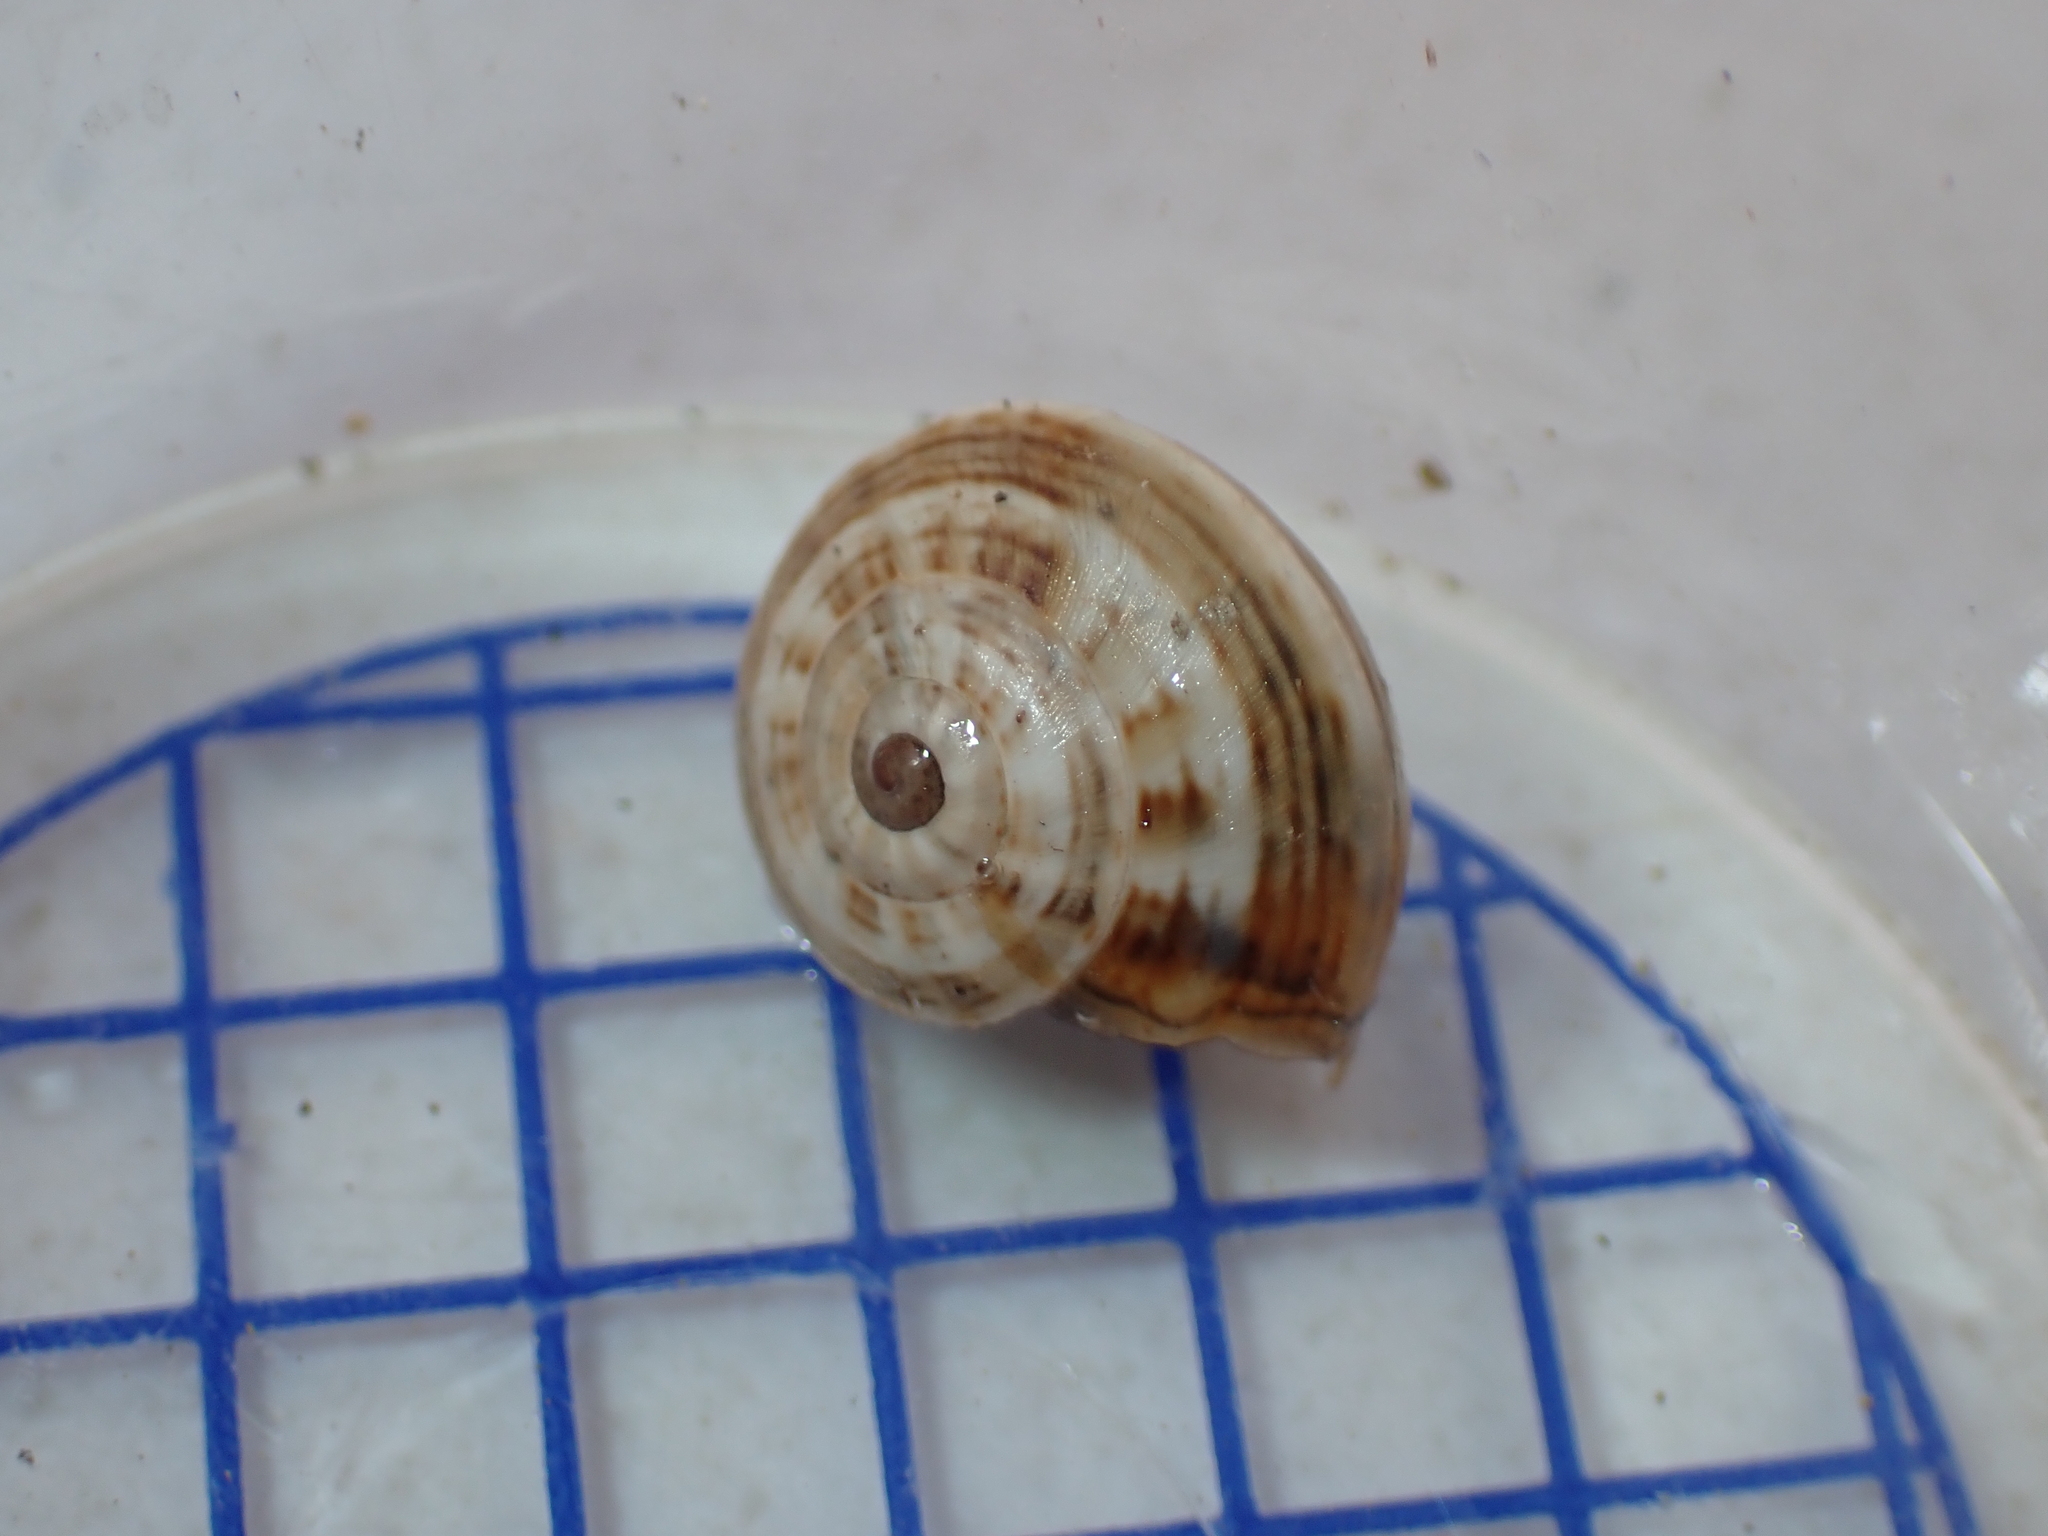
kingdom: Animalia
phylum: Mollusca
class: Gastropoda
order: Stylommatophora
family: Helicidae
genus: Theba
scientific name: Theba pisana
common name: White snail
